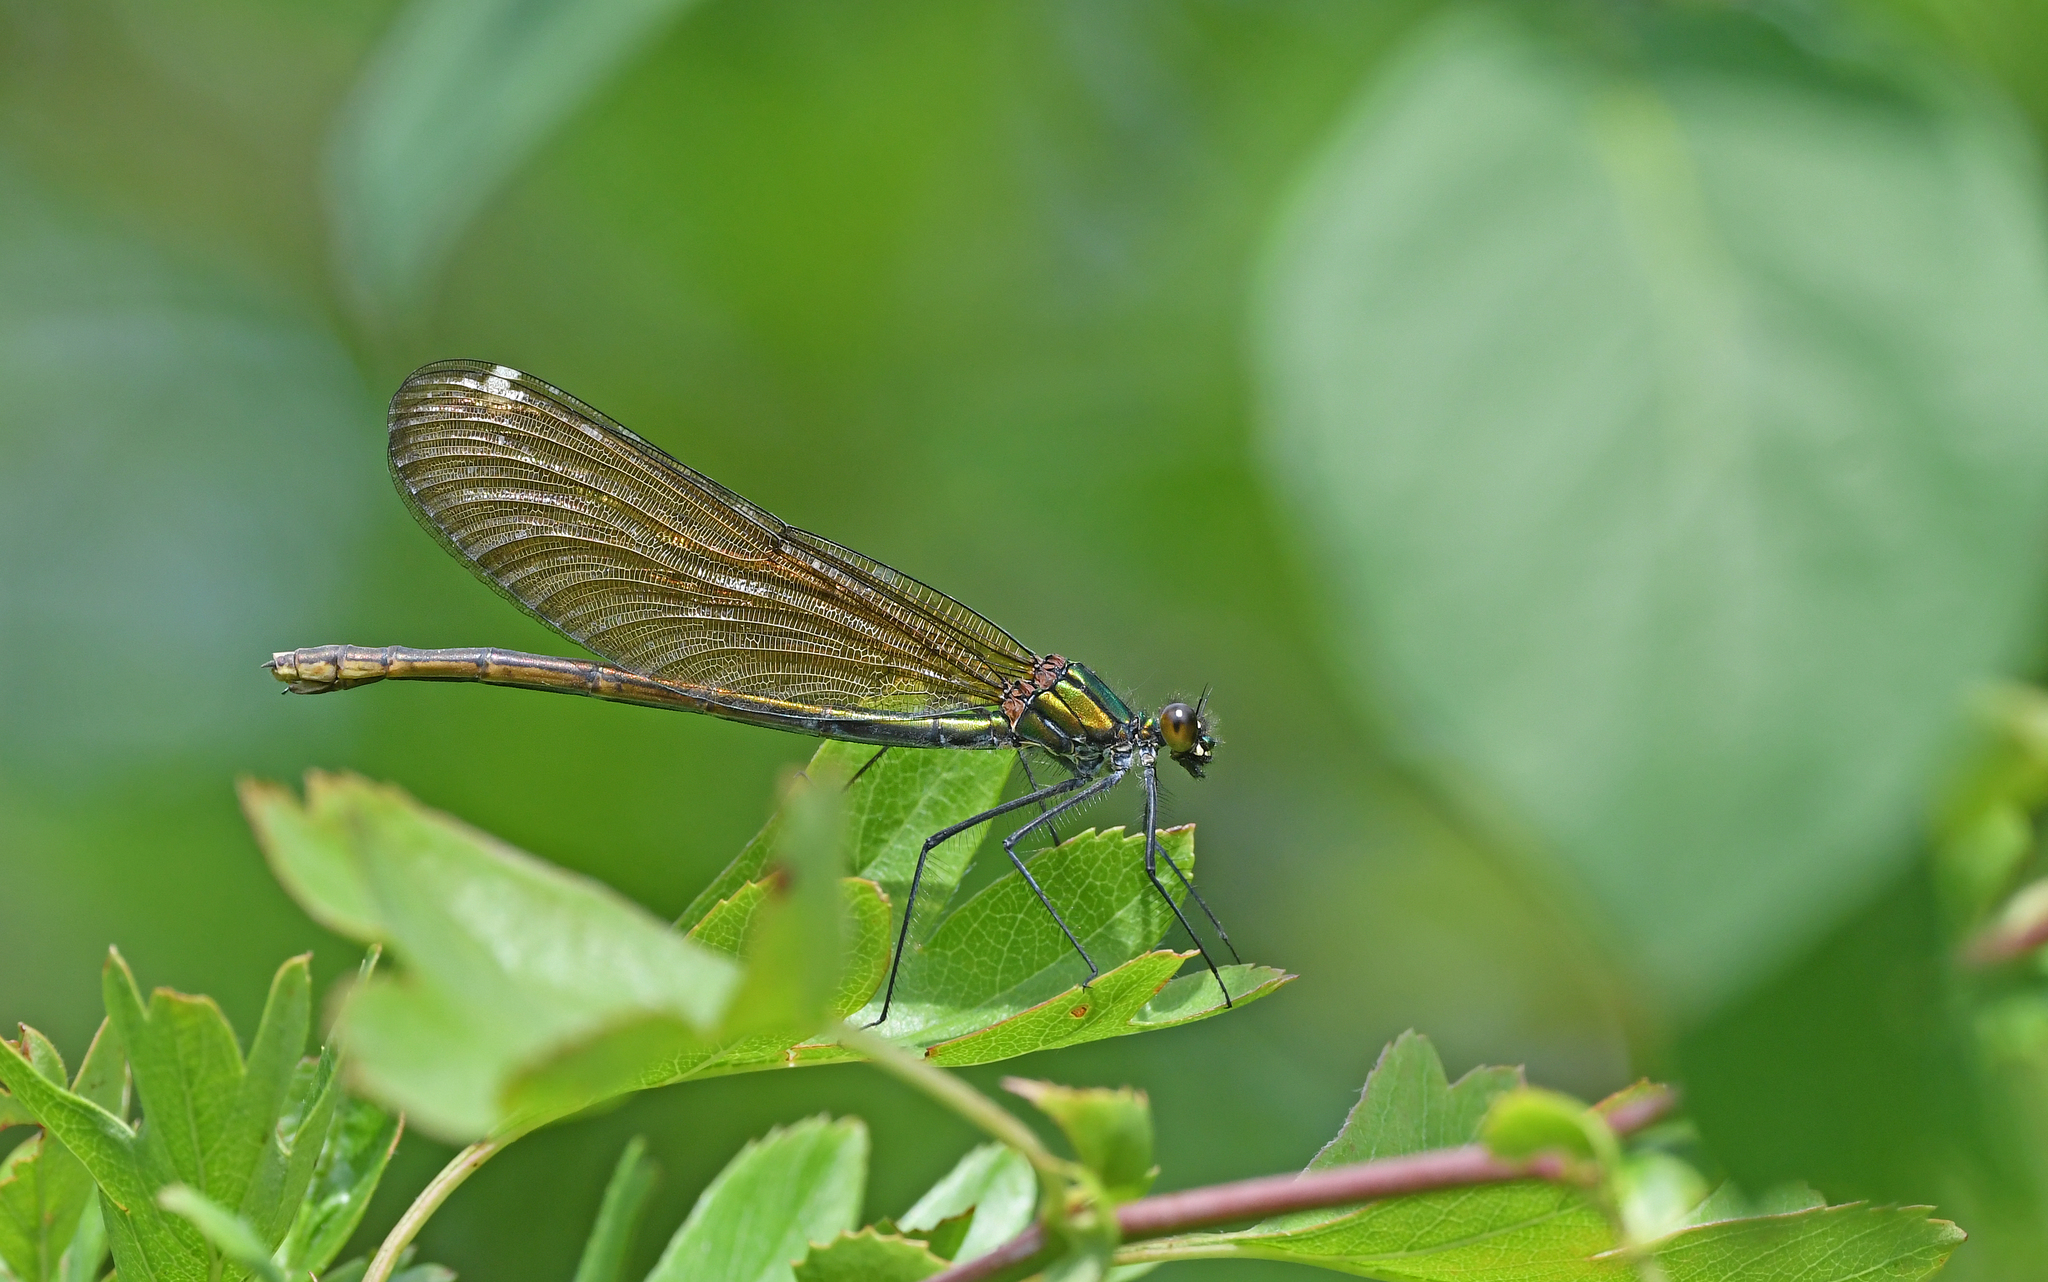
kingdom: Animalia
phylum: Arthropoda
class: Insecta
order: Odonata
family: Calopterygidae
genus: Calopteryx
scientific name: Calopteryx splendens
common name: Banded demoiselle
